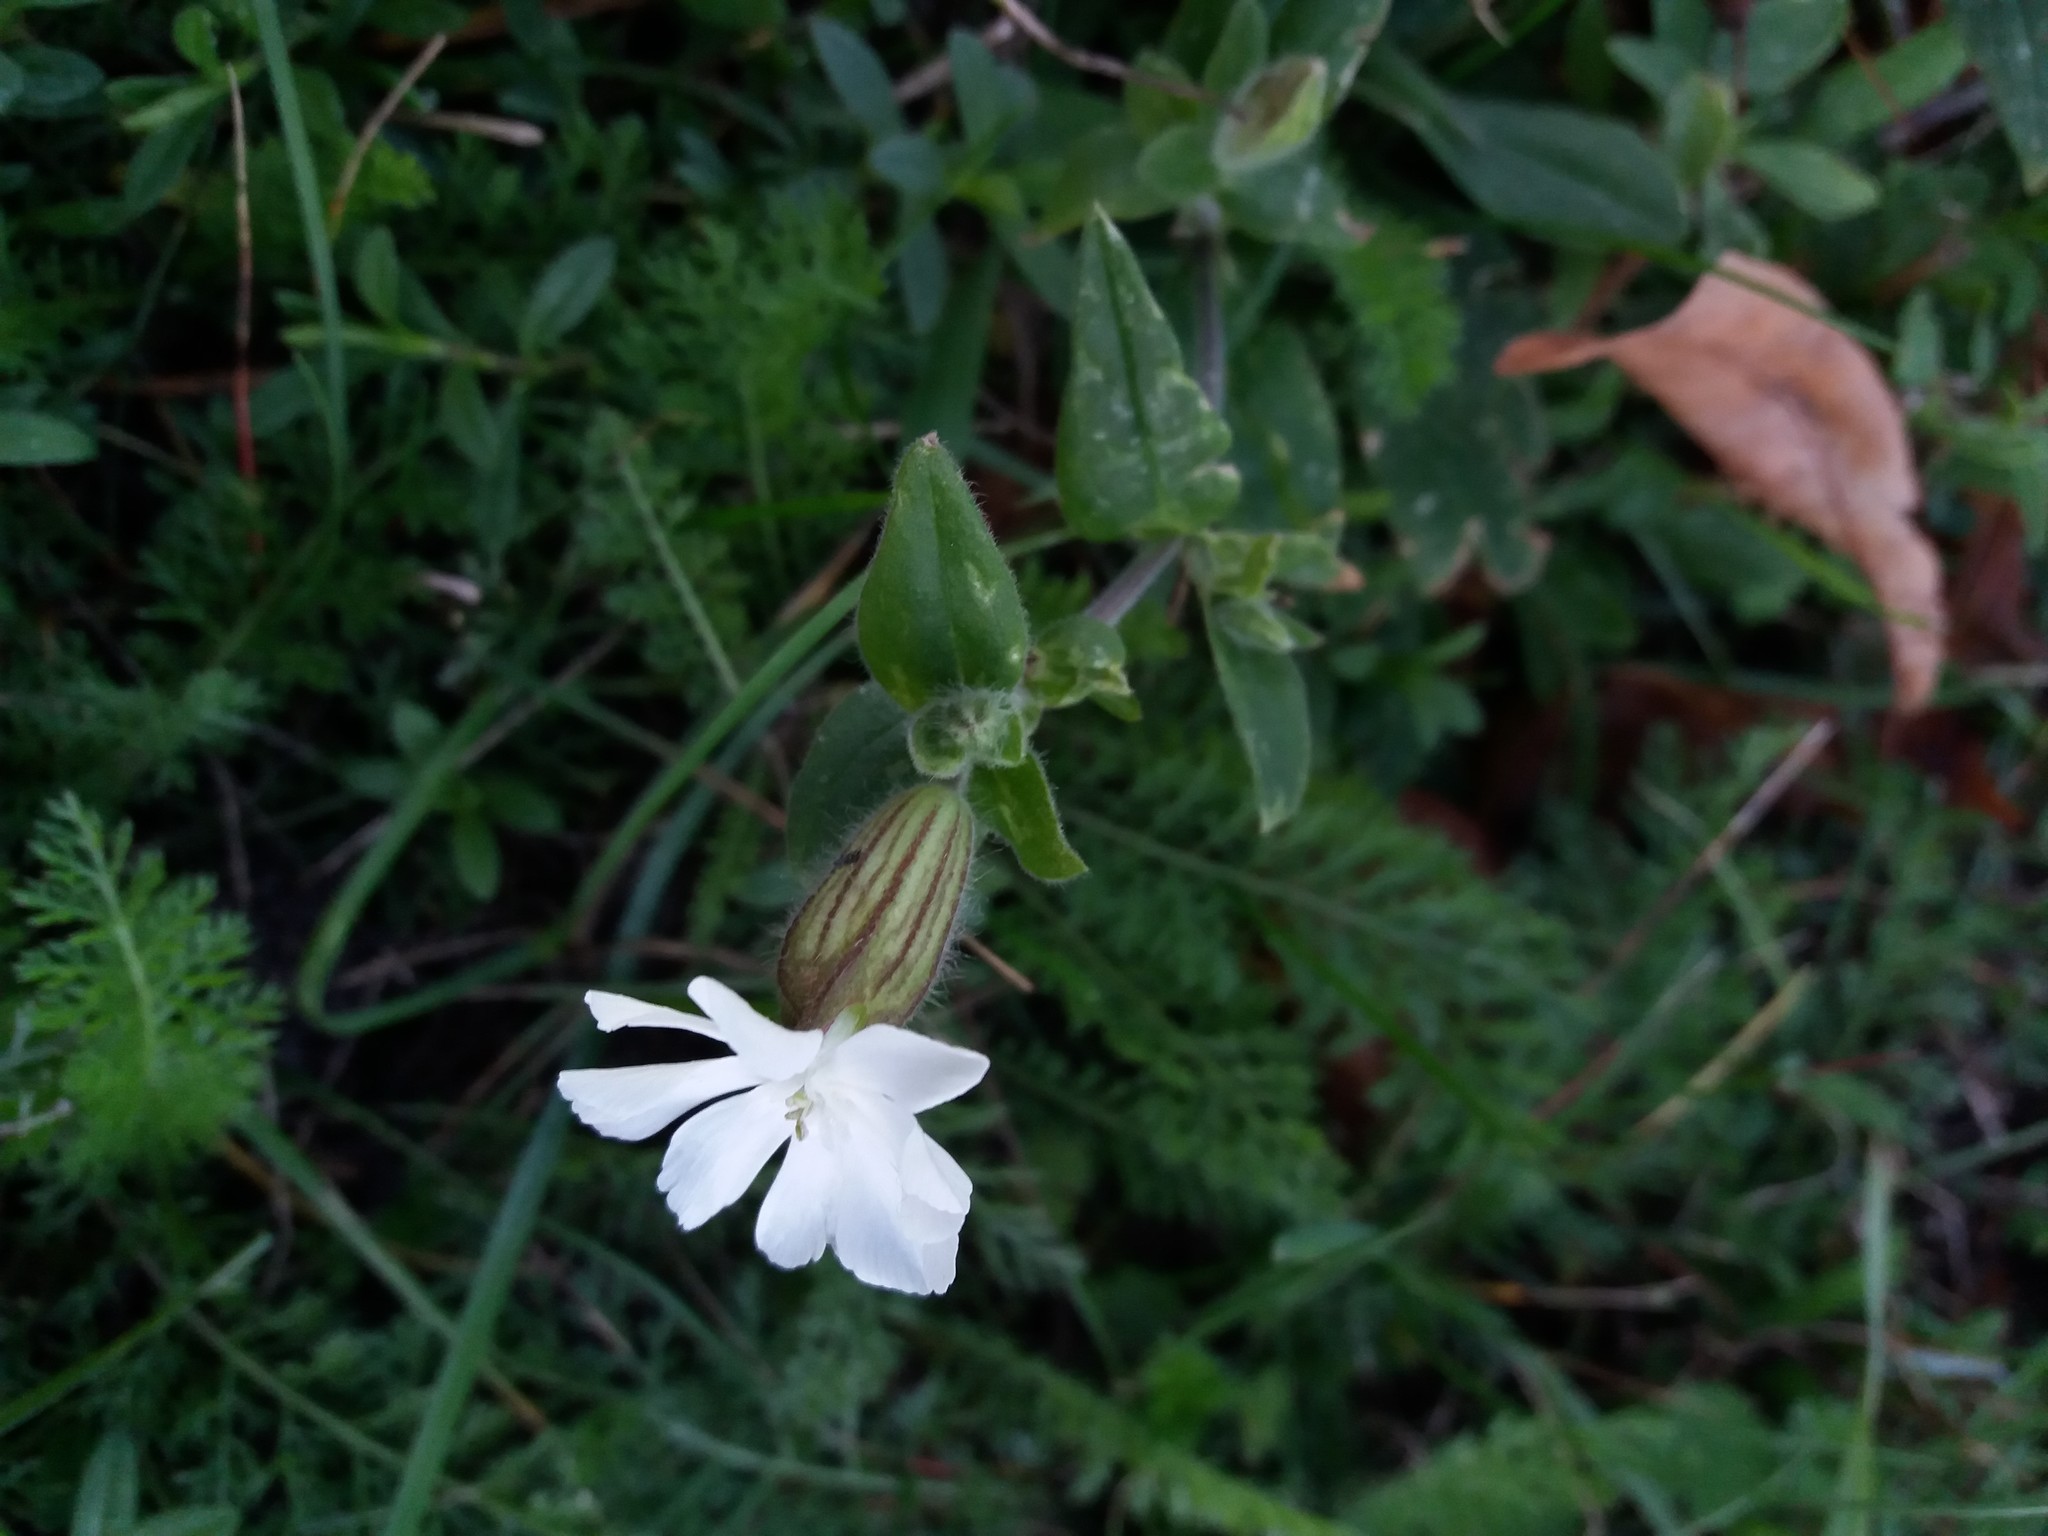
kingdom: Plantae
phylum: Tracheophyta
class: Magnoliopsida
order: Caryophyllales
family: Caryophyllaceae
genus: Silene
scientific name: Silene latifolia
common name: White campion
